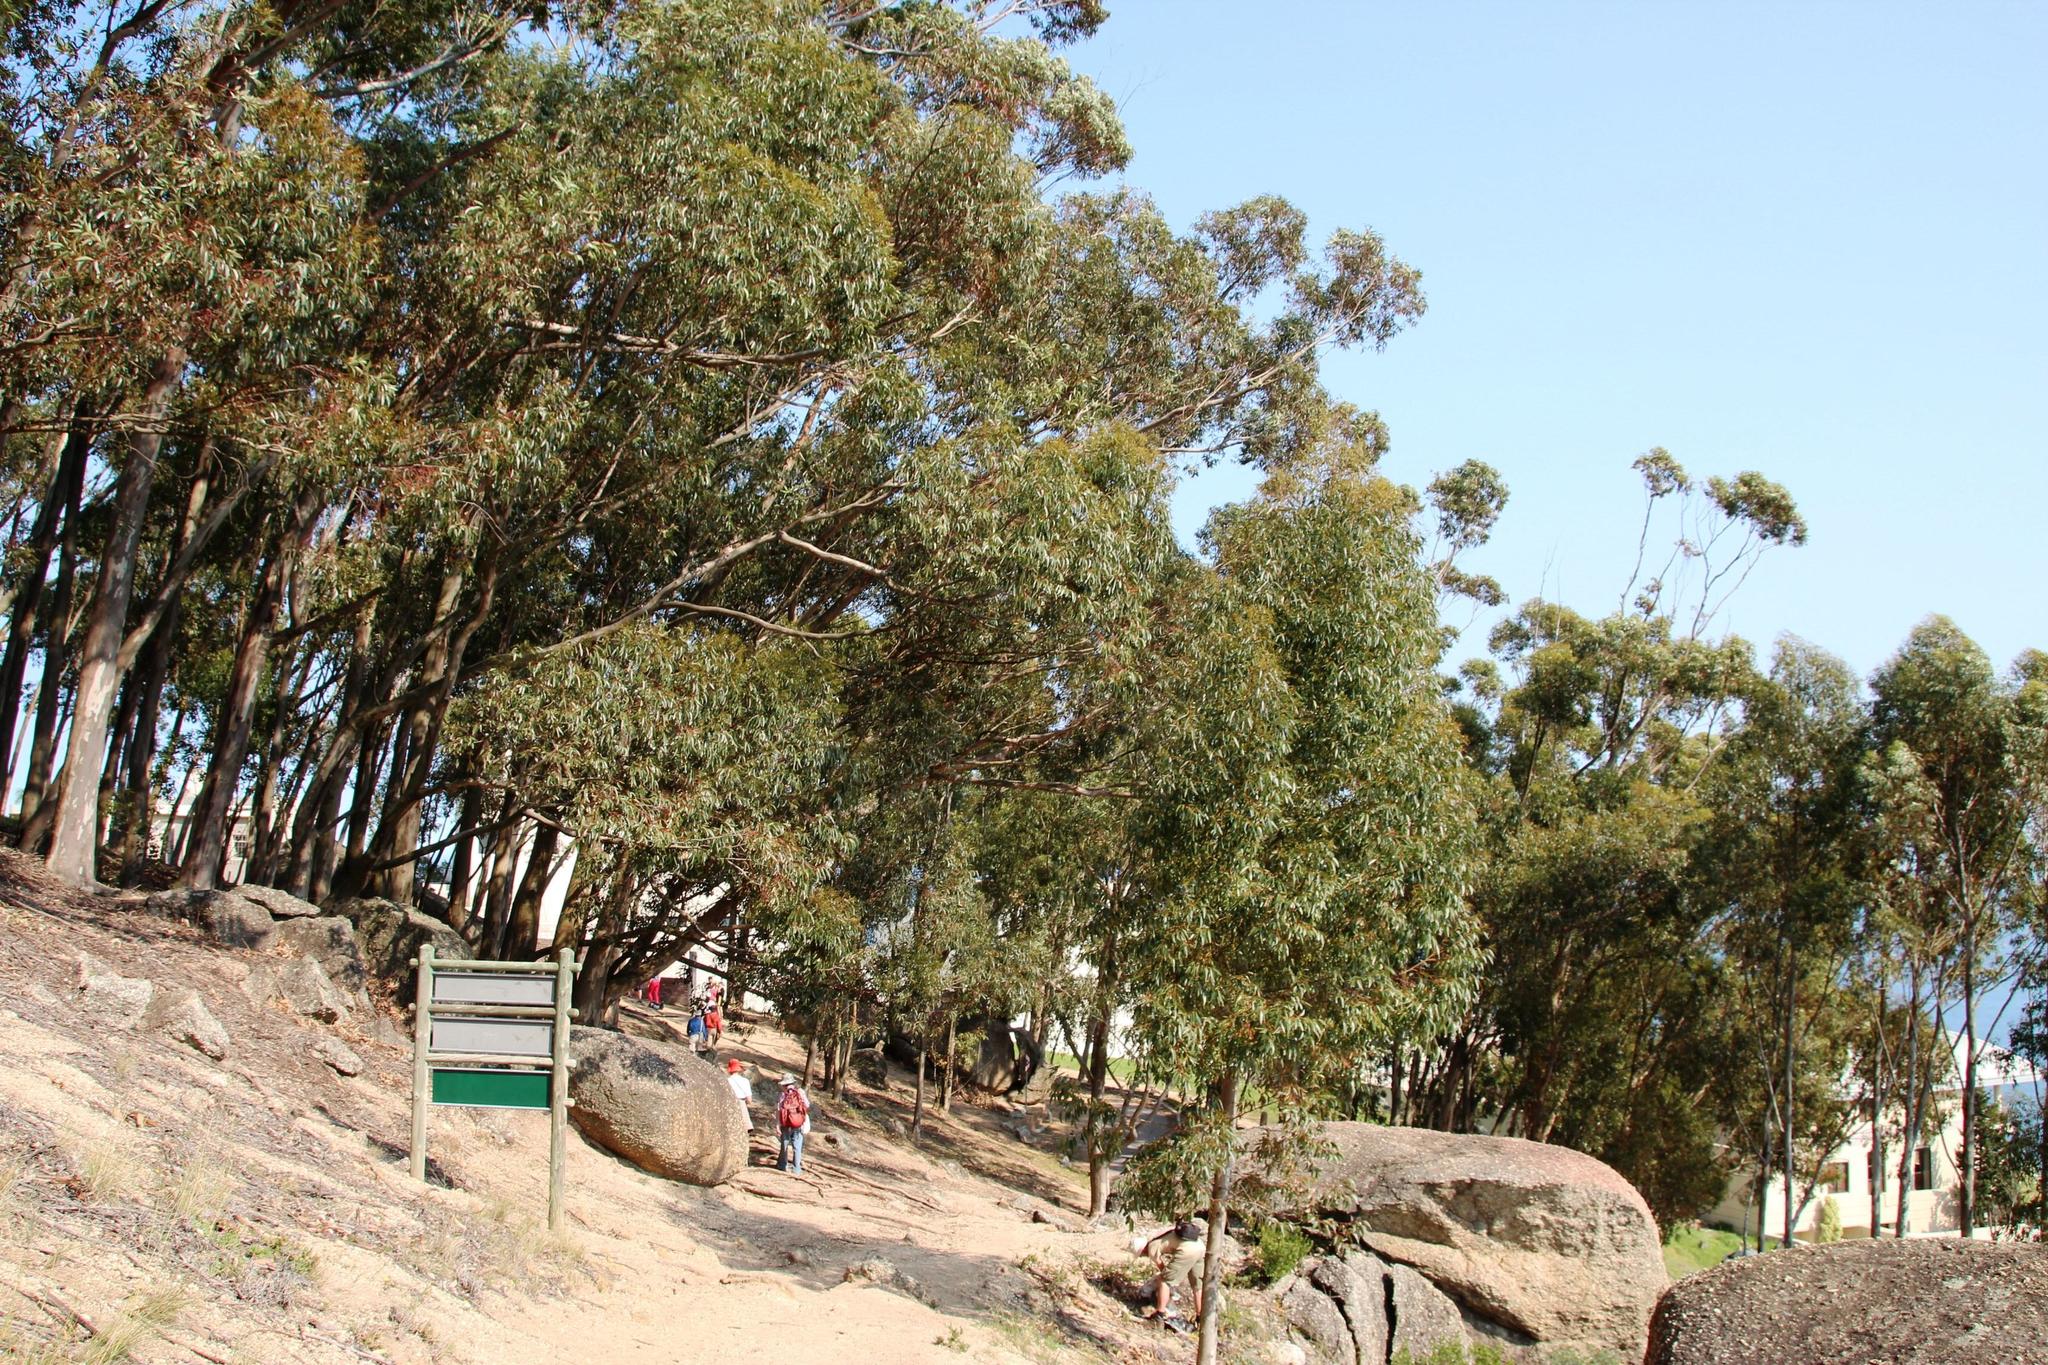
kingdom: Plantae
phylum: Tracheophyta
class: Magnoliopsida
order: Myrtales
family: Myrtaceae
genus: Eucalyptus
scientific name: Eucalyptus cladocalyx
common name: Sugargum
